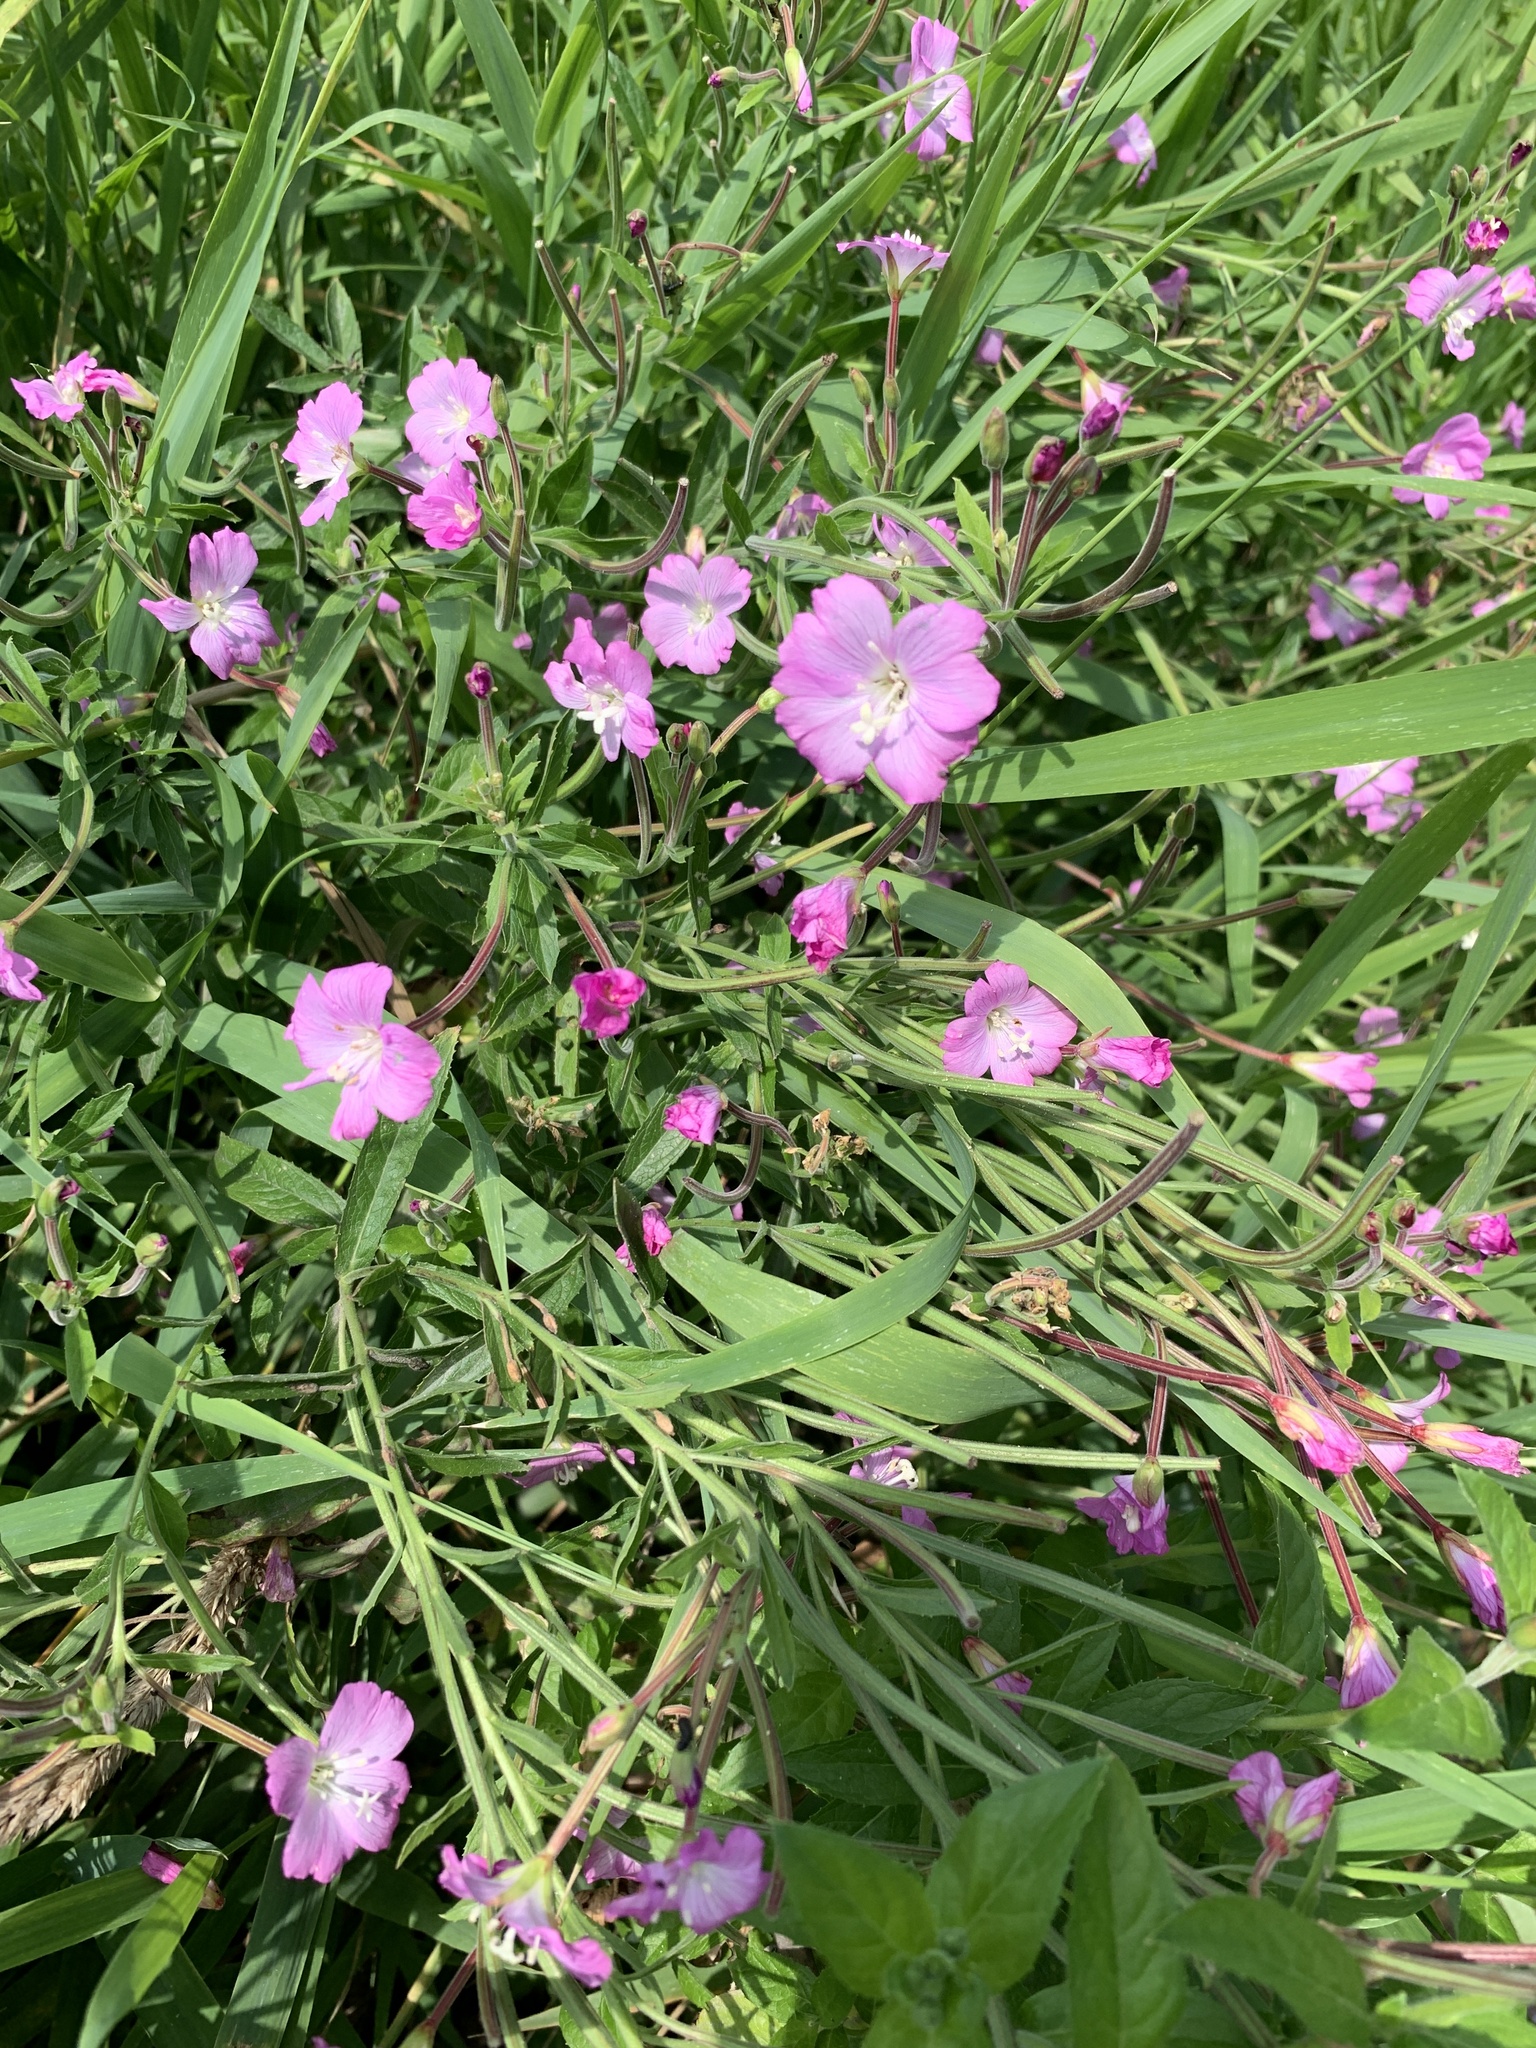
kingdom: Plantae
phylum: Tracheophyta
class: Magnoliopsida
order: Myrtales
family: Onagraceae
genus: Epilobium
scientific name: Epilobium hirsutum
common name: Great willowherb
